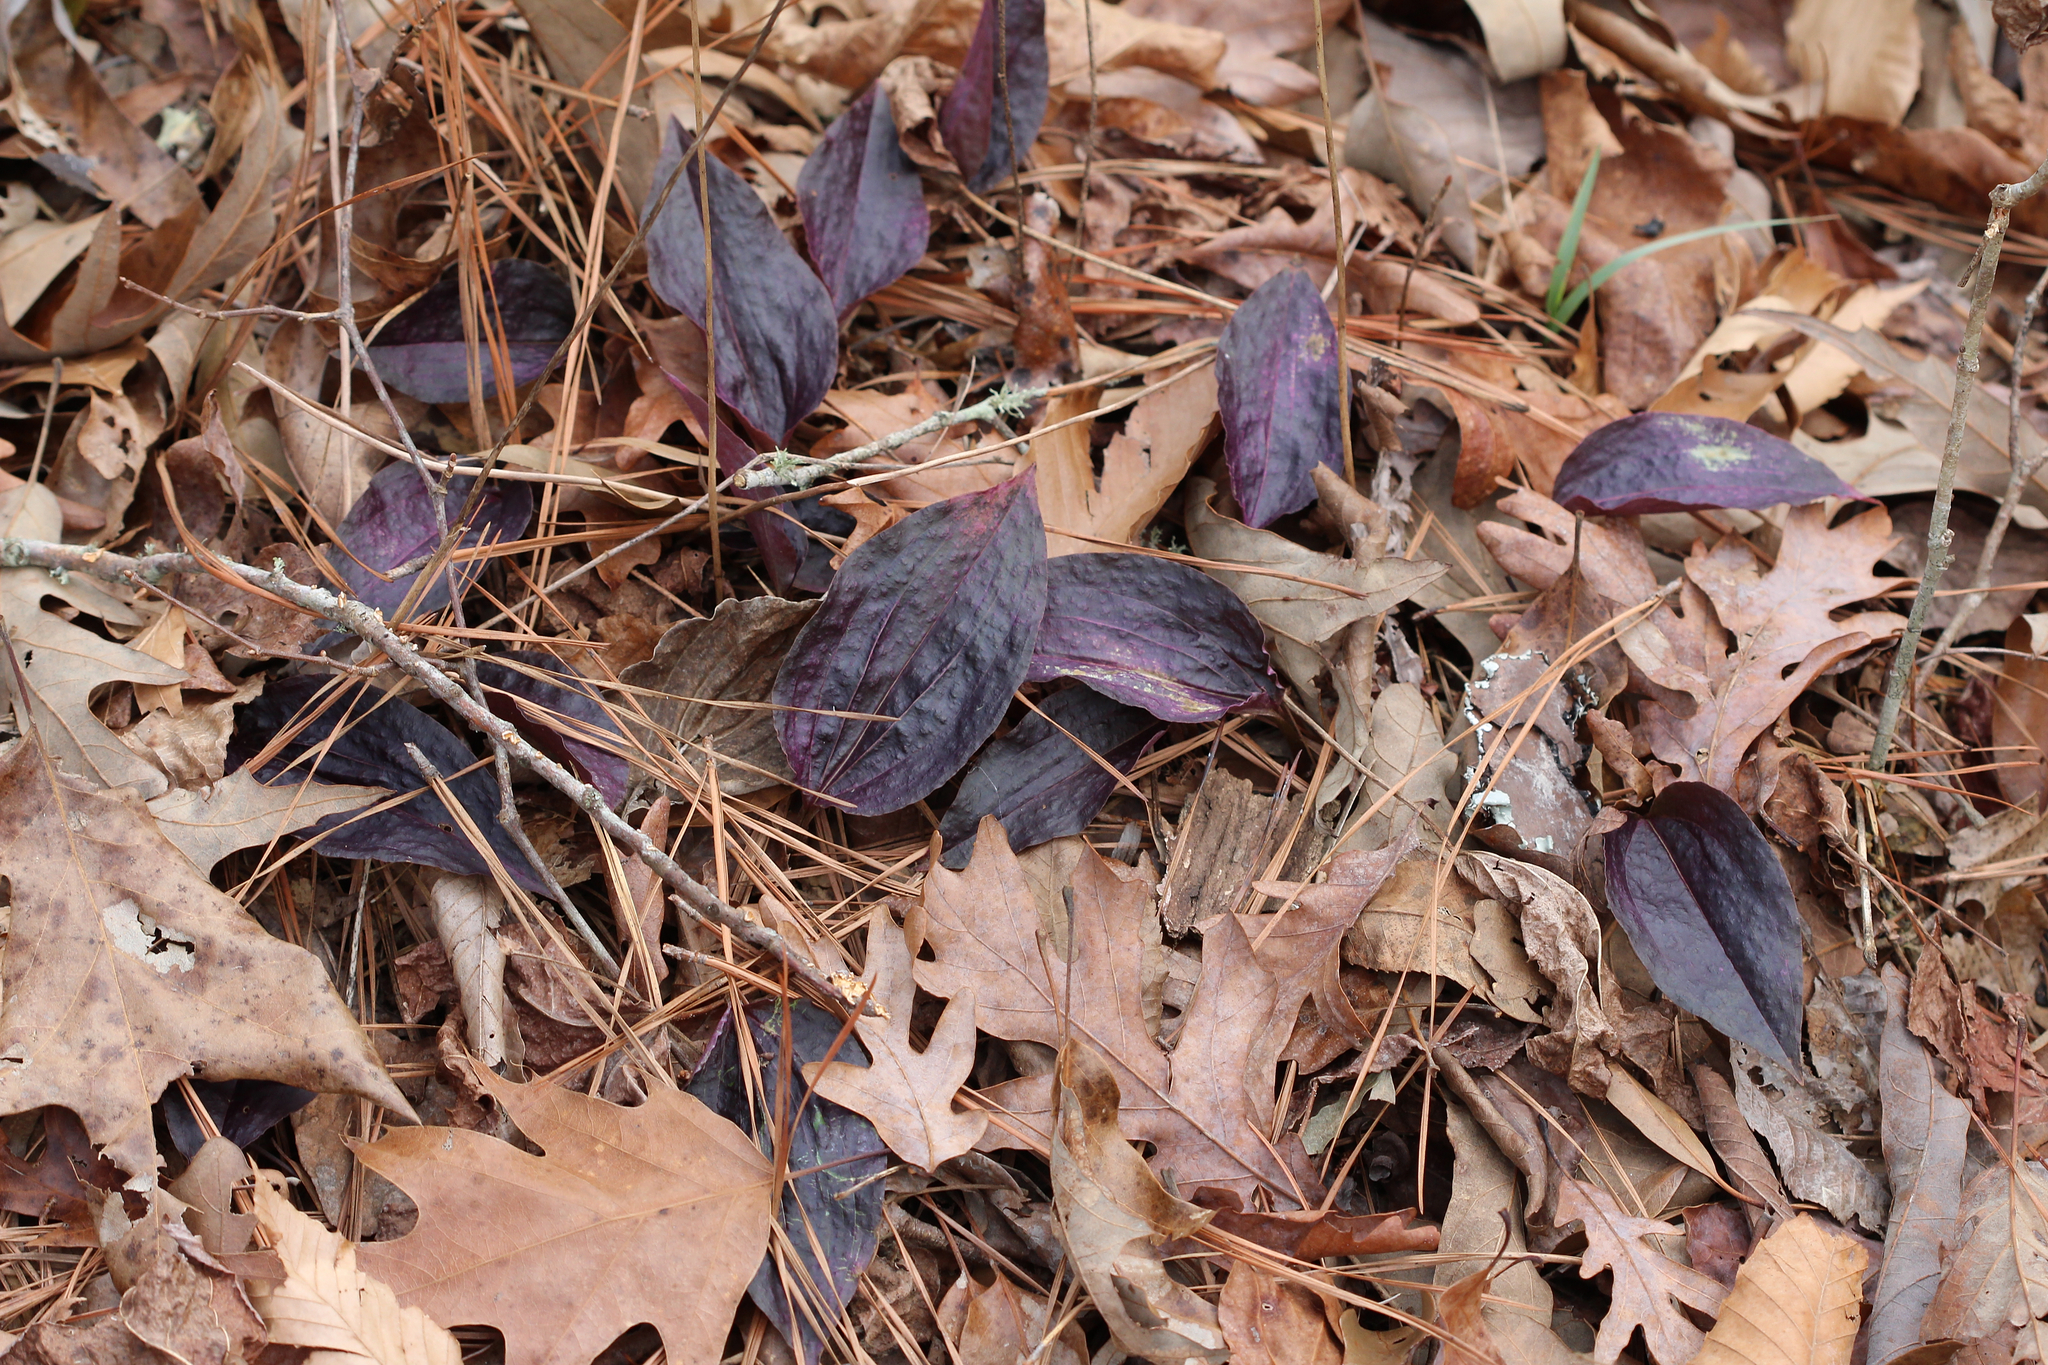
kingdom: Plantae
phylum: Tracheophyta
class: Liliopsida
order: Asparagales
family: Orchidaceae
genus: Tipularia
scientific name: Tipularia discolor
